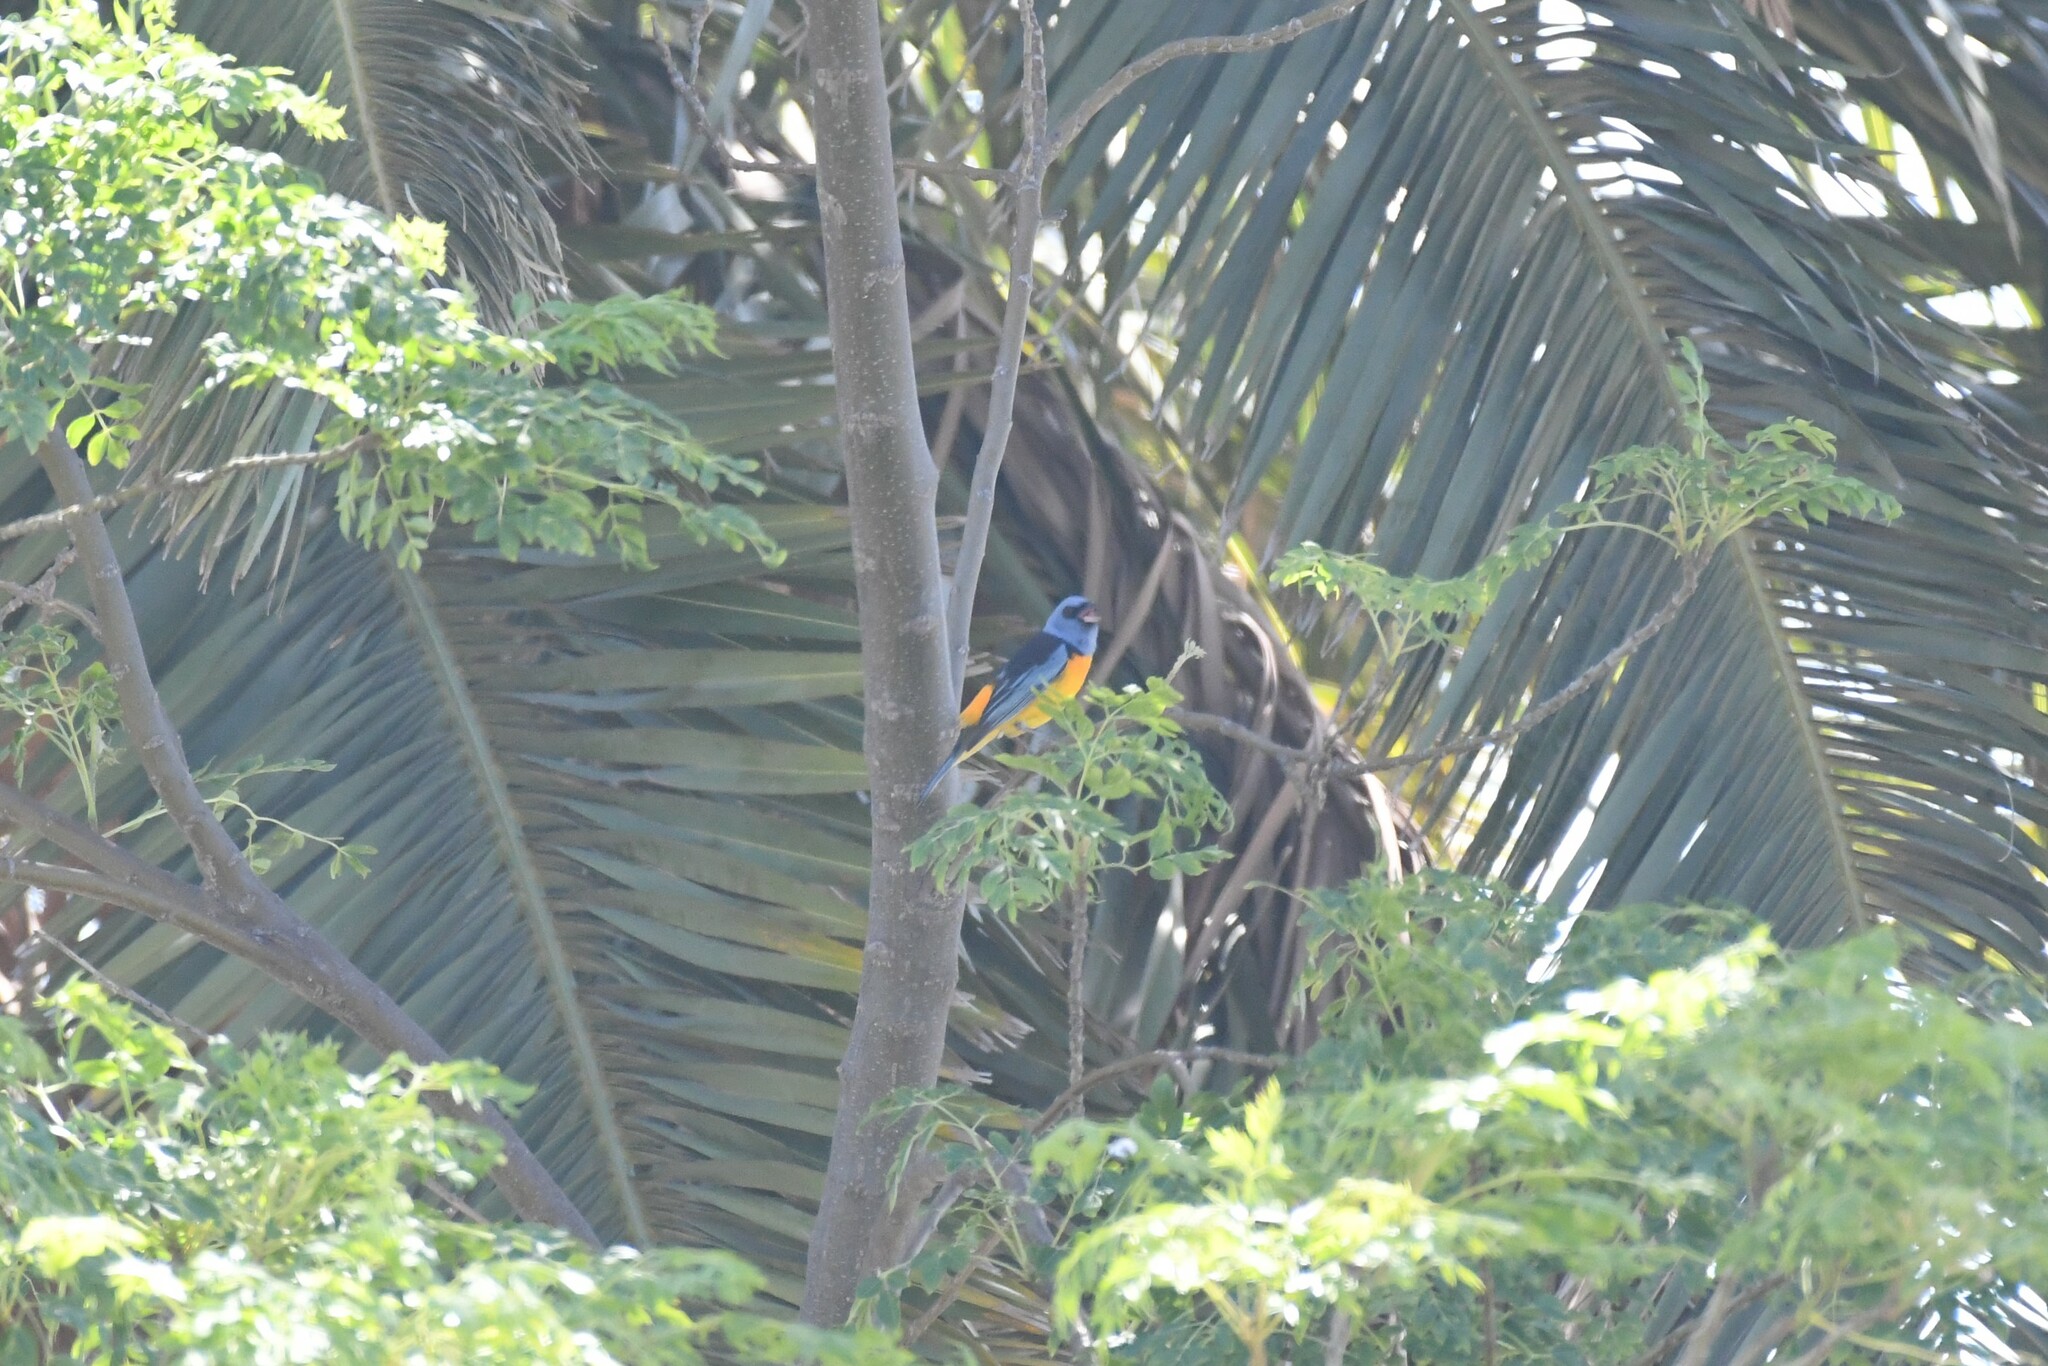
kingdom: Animalia
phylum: Chordata
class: Aves
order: Passeriformes
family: Thraupidae
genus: Rauenia
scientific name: Rauenia bonariensis
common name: Blue-and-yellow tanager
